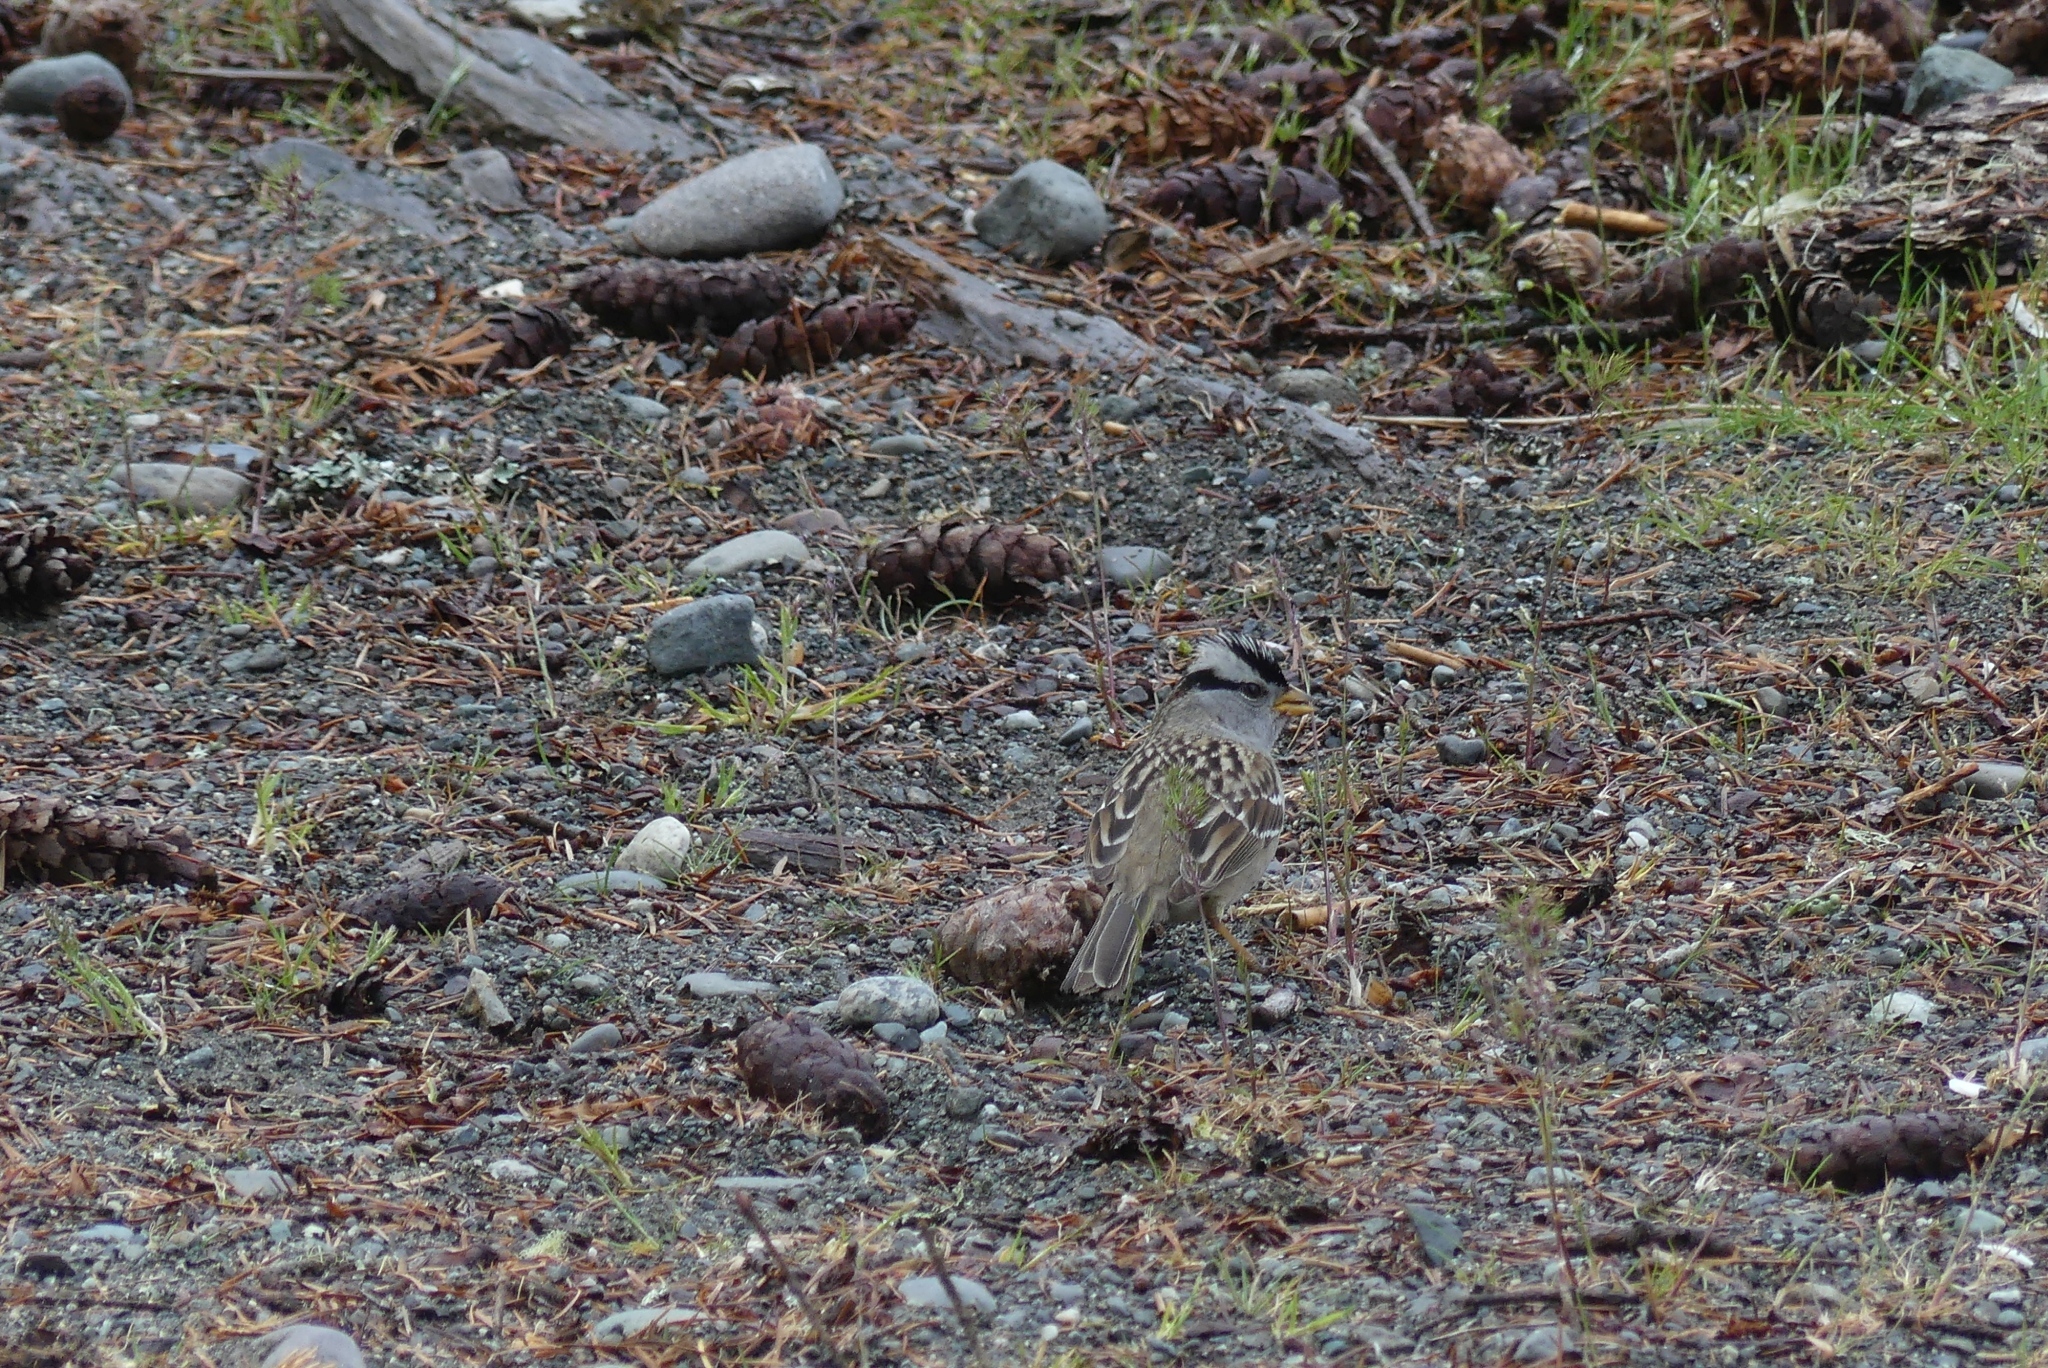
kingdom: Animalia
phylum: Chordata
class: Aves
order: Passeriformes
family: Passerellidae
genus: Zonotrichia
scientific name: Zonotrichia leucophrys
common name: White-crowned sparrow
